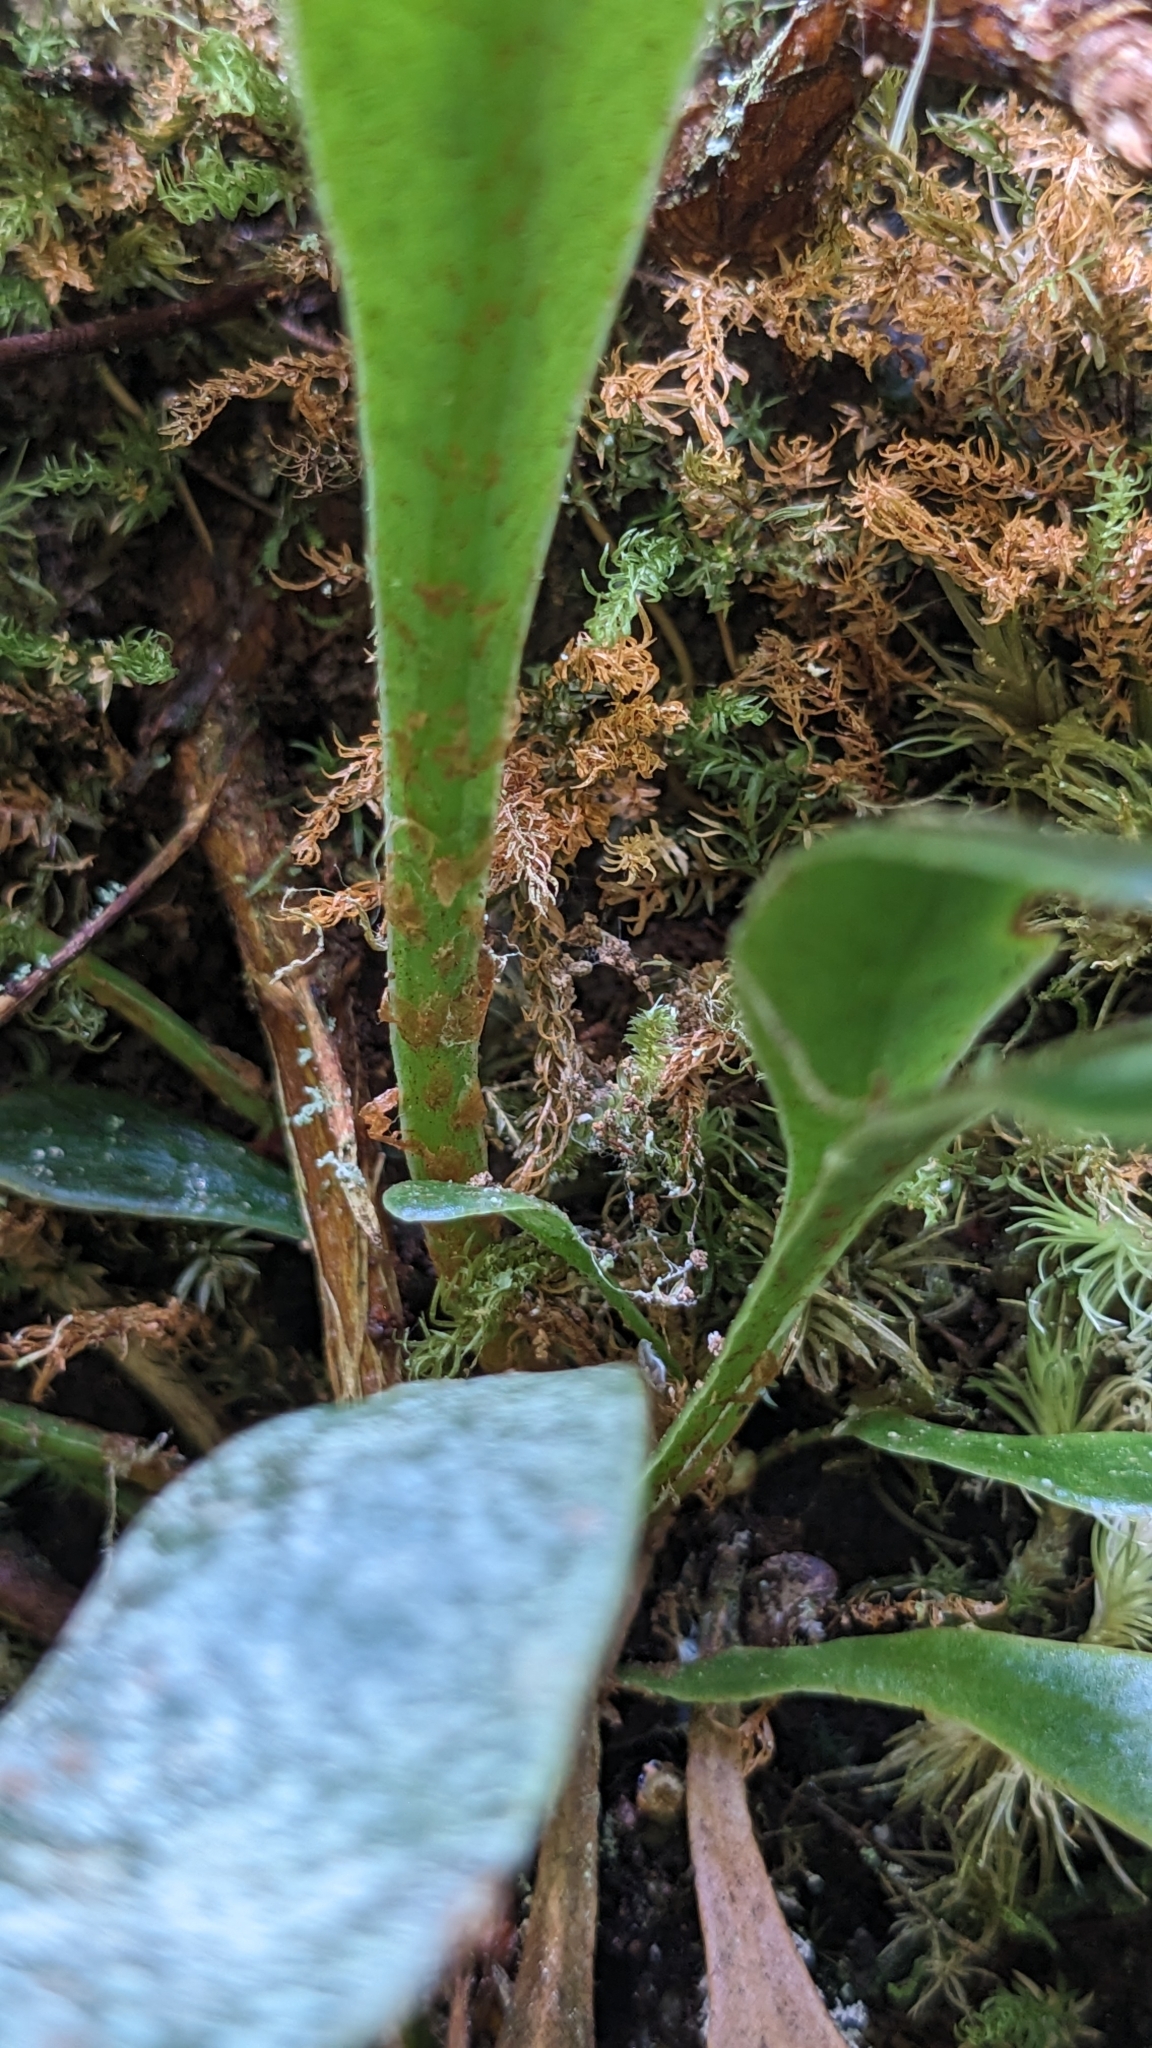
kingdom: Plantae
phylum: Tracheophyta
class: Polypodiopsida
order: Polypodiales
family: Dryopteridaceae
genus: Elaphoglossum
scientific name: Elaphoglossum yoshinagae
